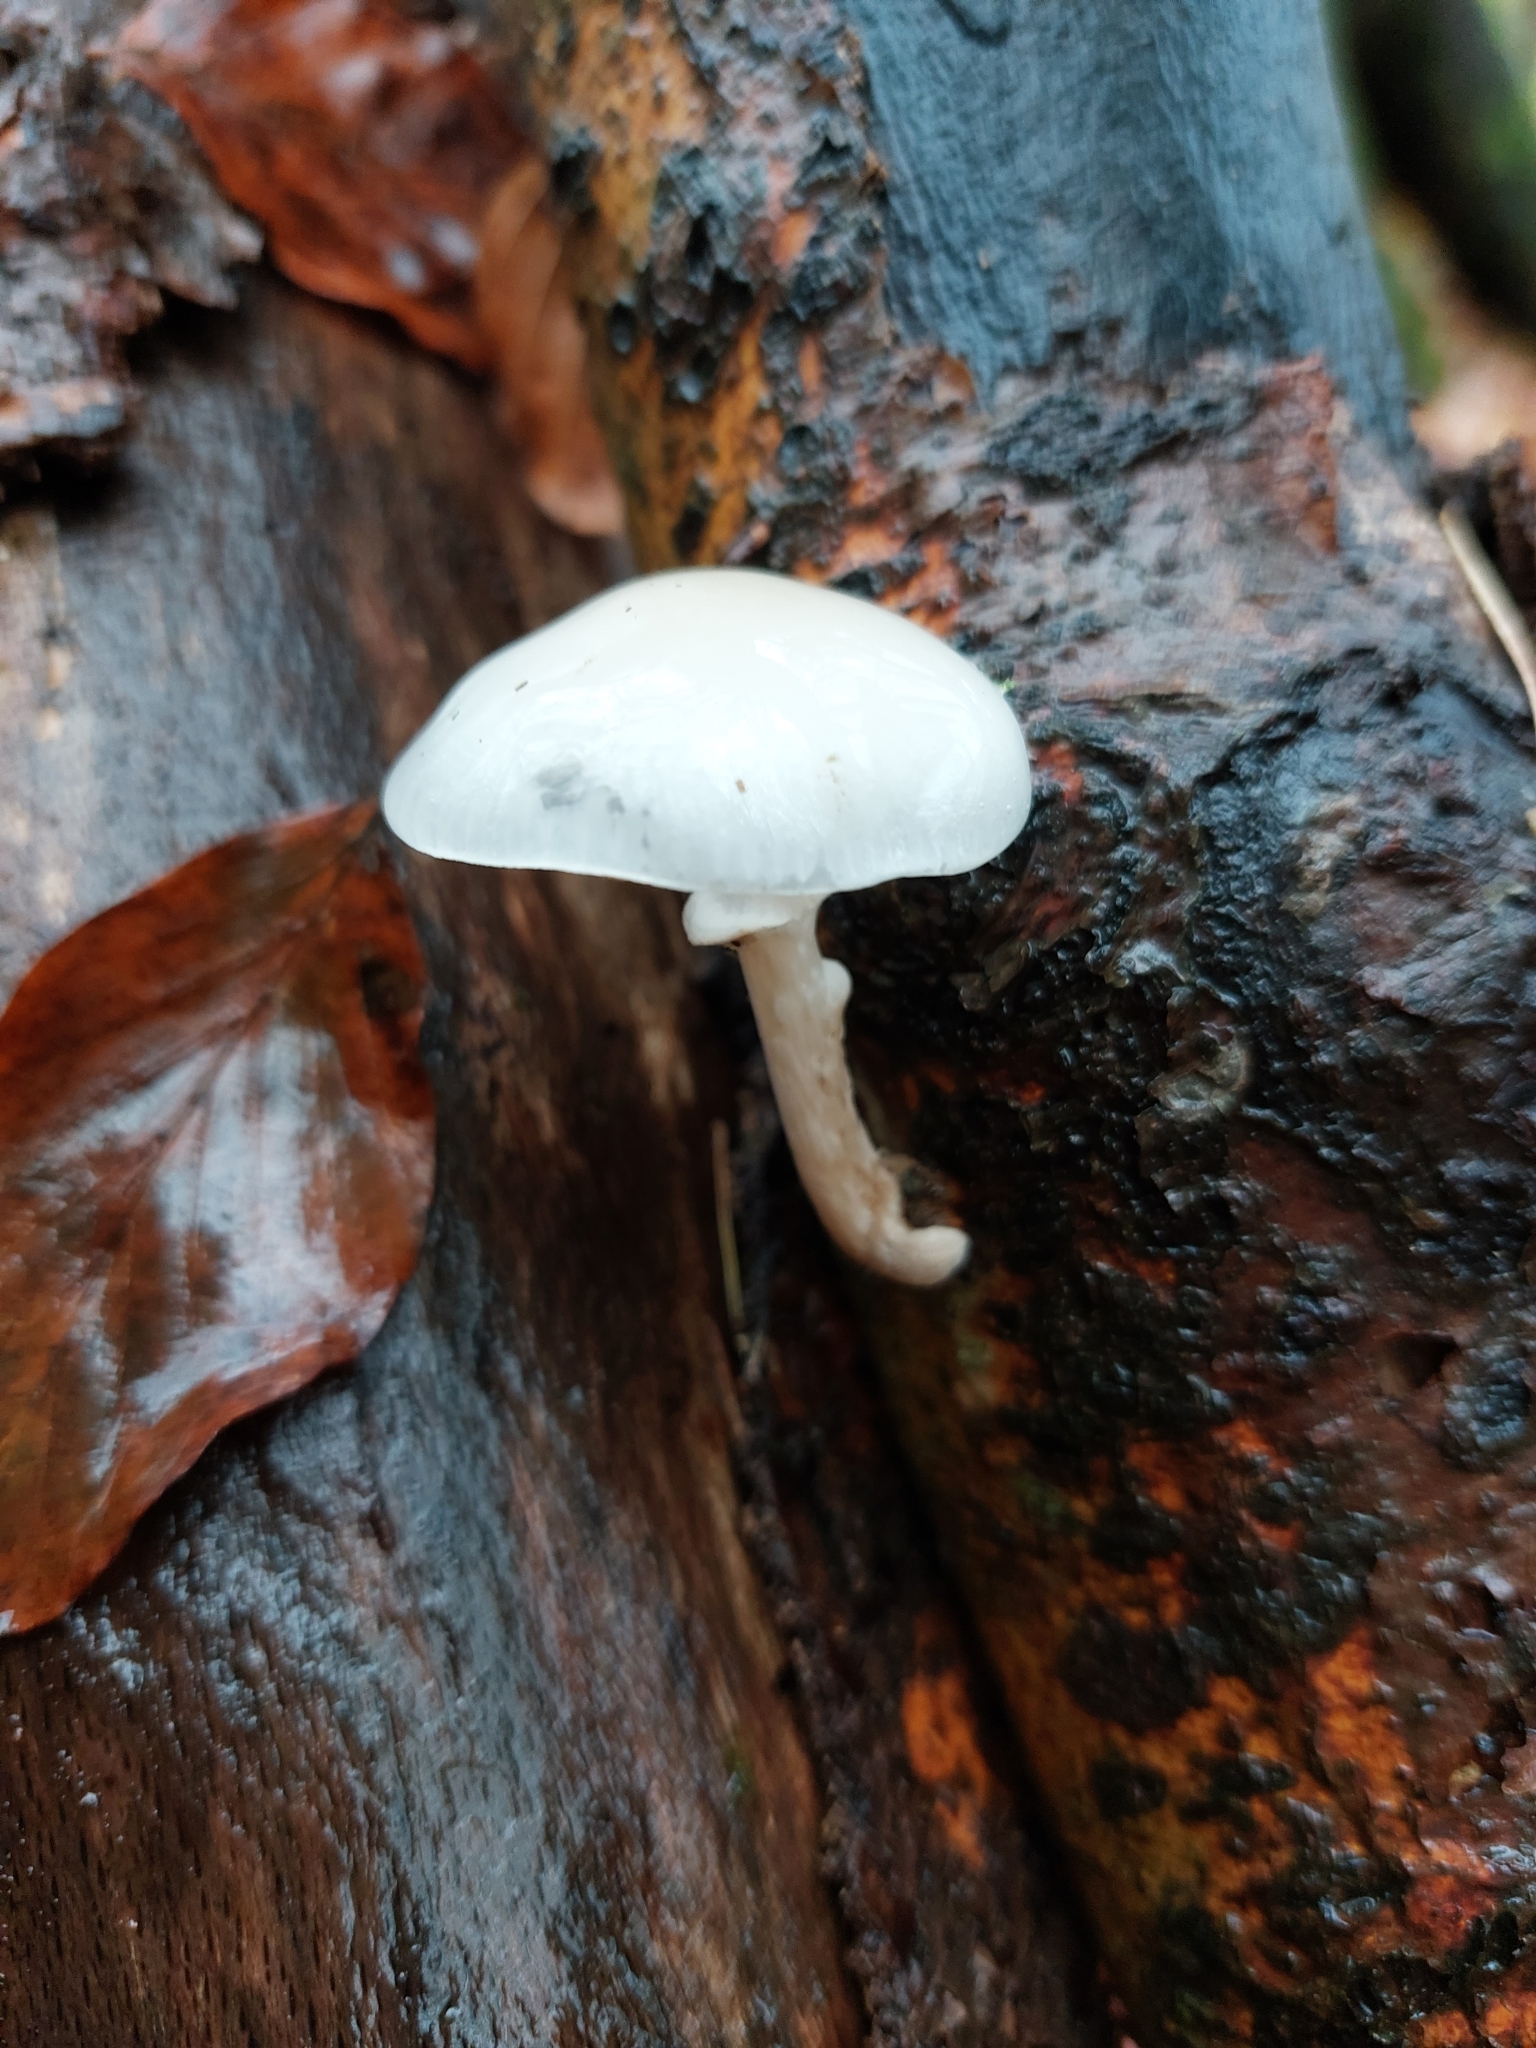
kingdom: Fungi
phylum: Basidiomycota
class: Agaricomycetes
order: Agaricales
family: Physalacriaceae
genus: Mucidula
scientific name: Mucidula mucida
